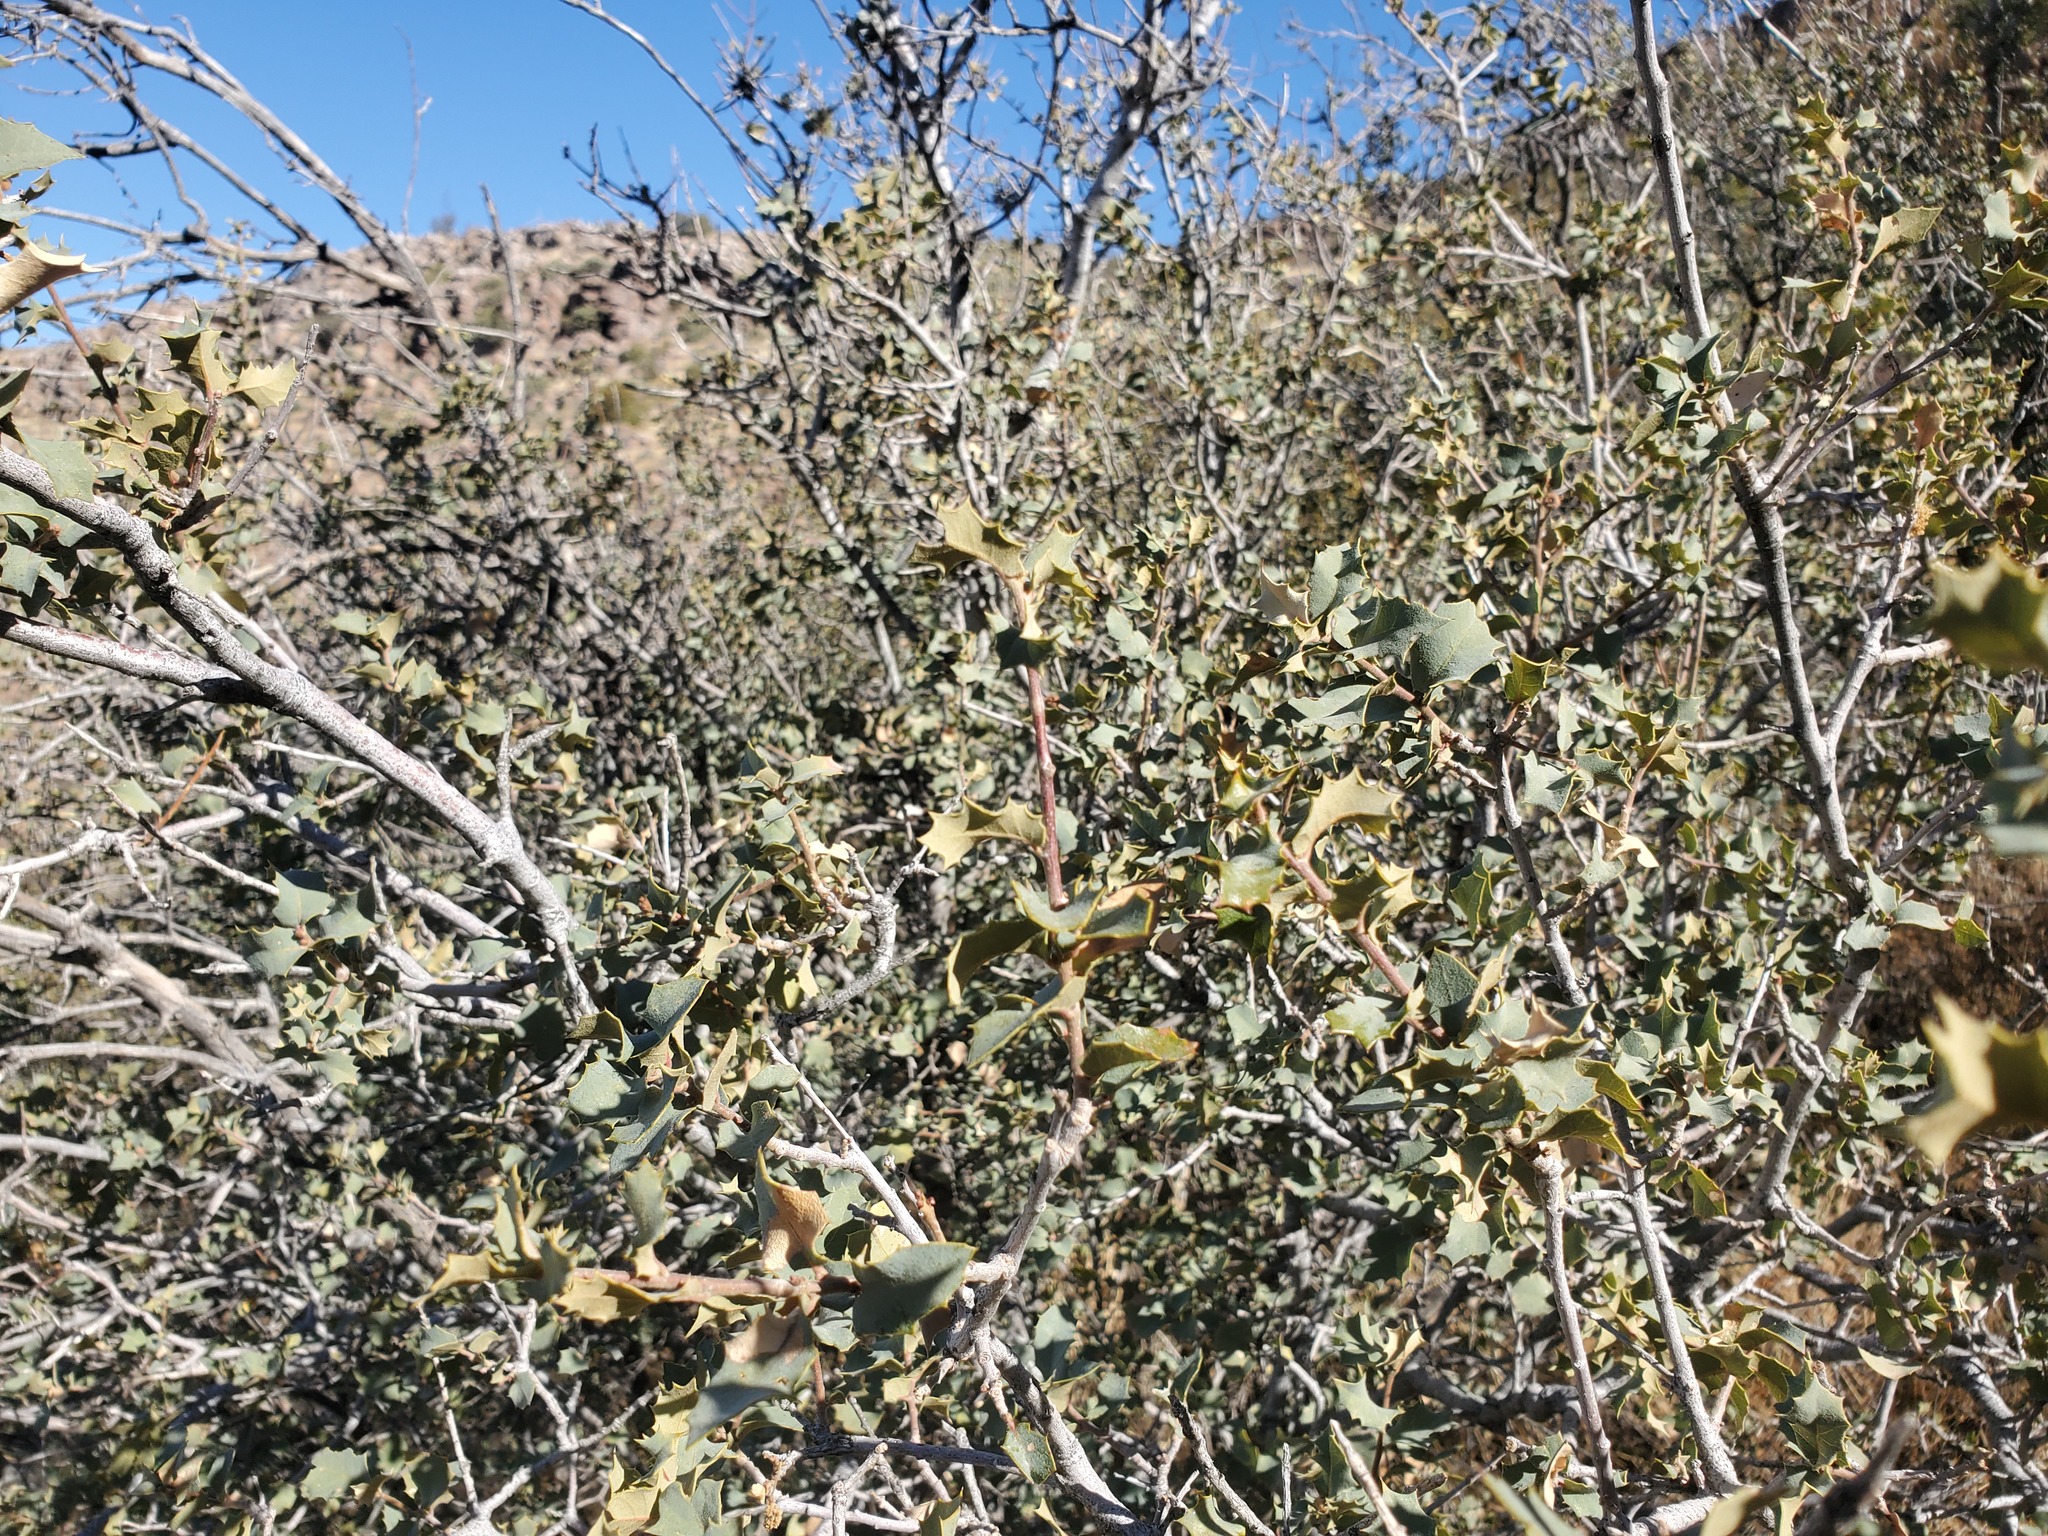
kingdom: Plantae
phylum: Tracheophyta
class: Magnoliopsida
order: Fagales
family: Fagaceae
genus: Quercus
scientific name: Quercus turbinella
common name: Sonoran scrub oak
